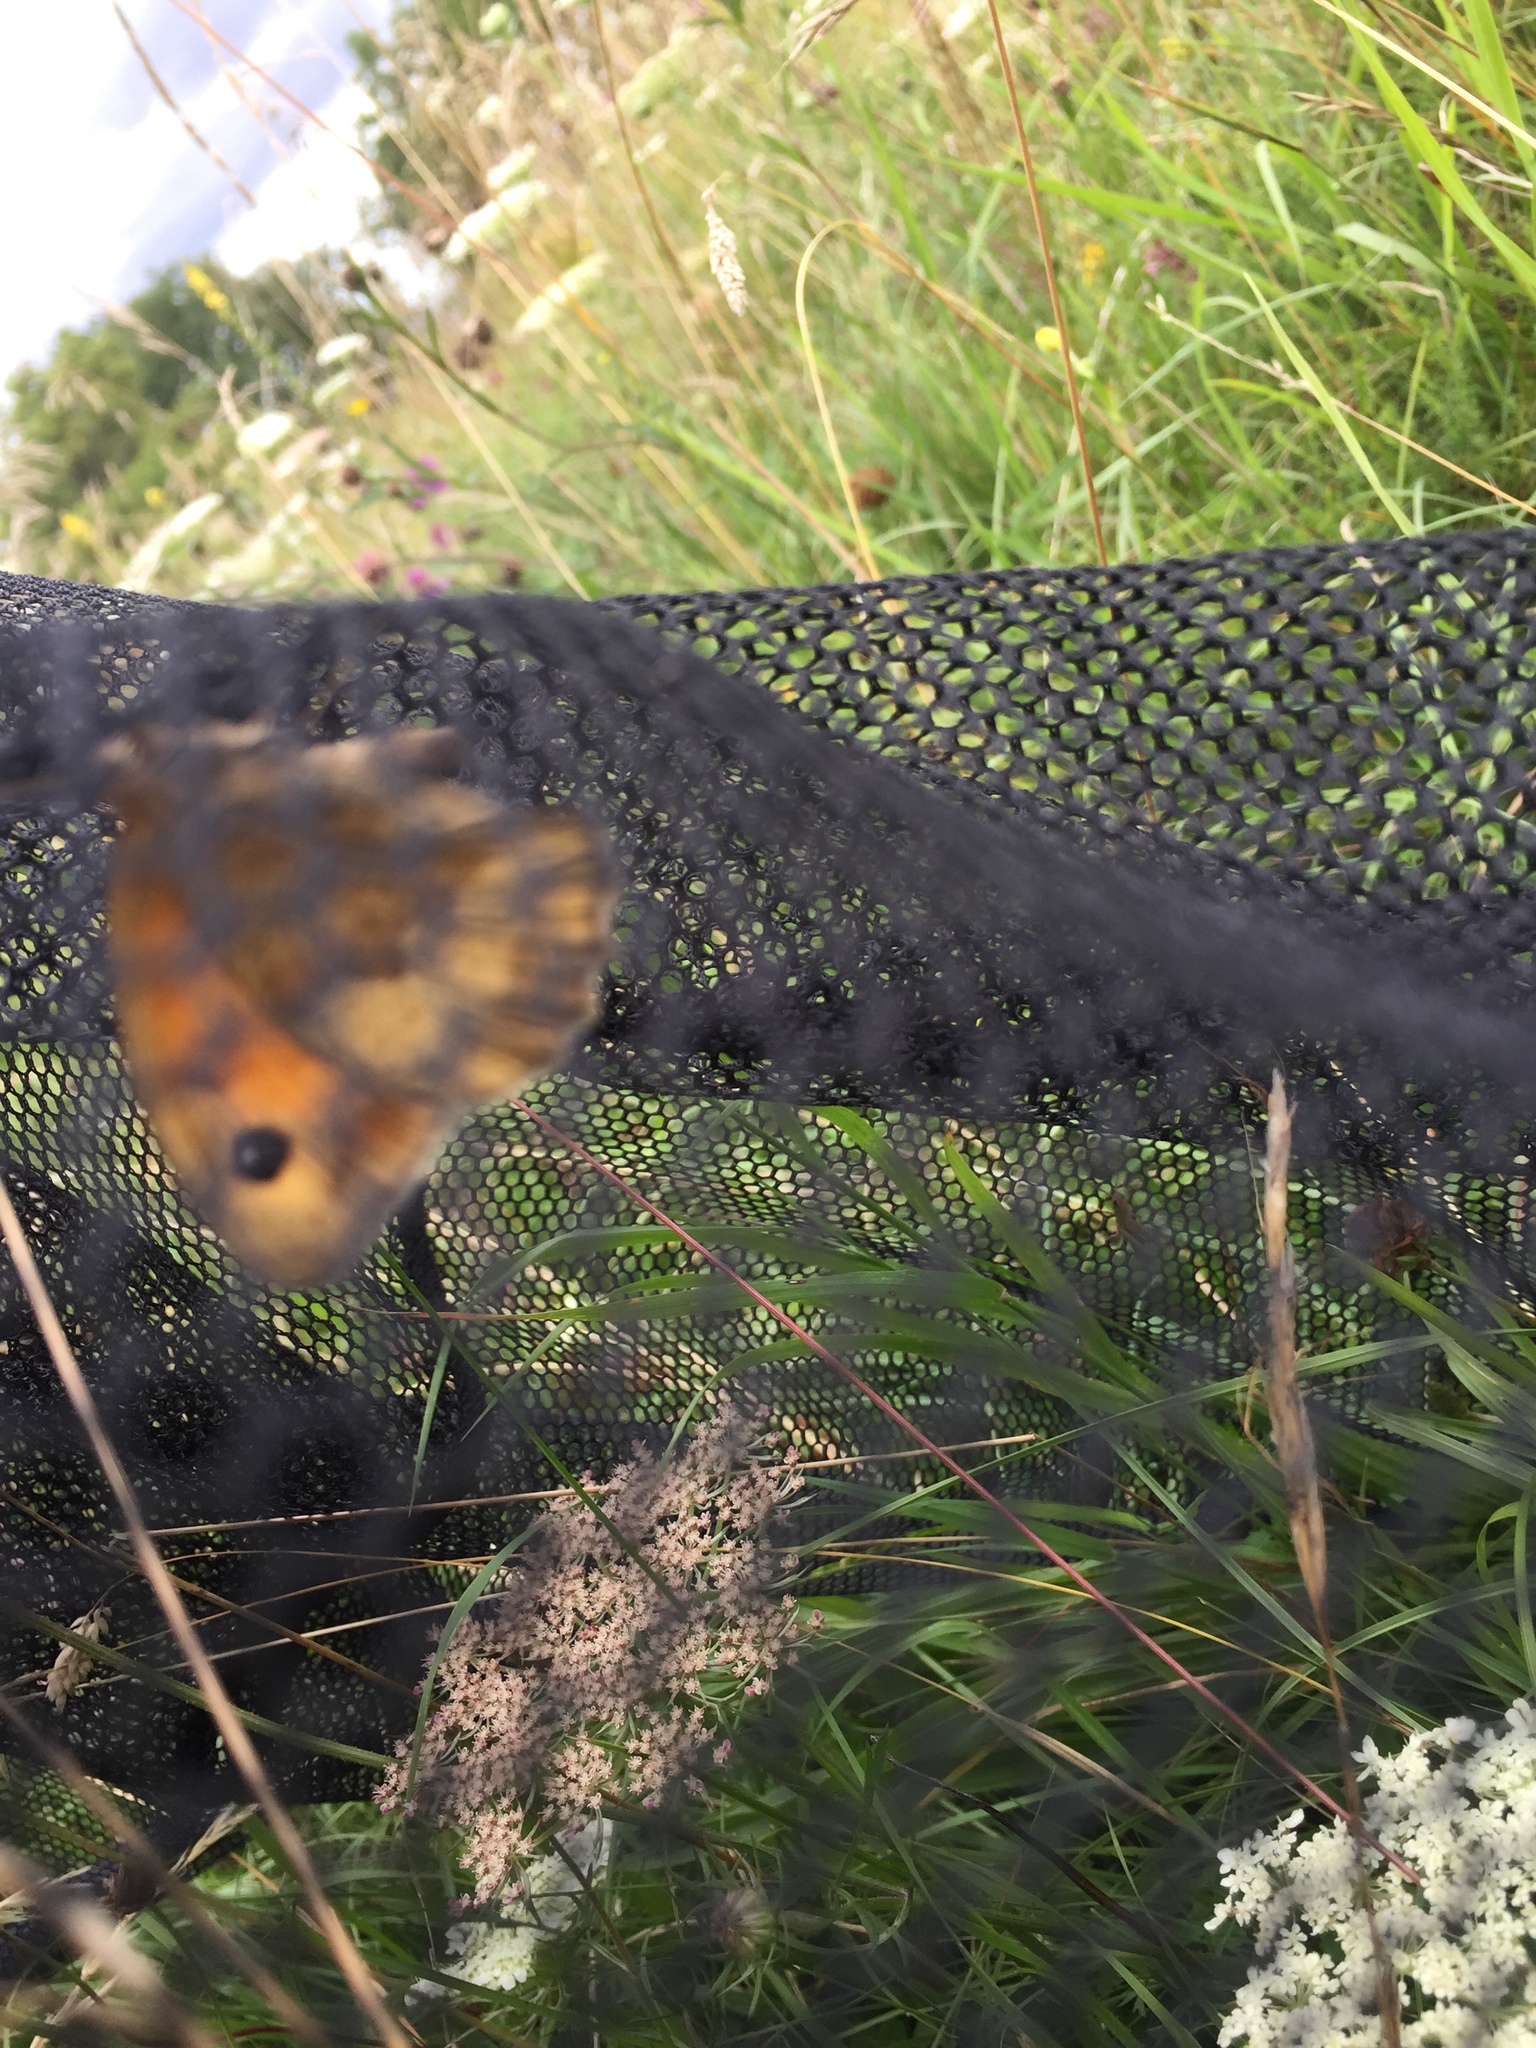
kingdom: Animalia
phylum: Arthropoda
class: Insecta
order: Lepidoptera
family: Nymphalidae
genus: Maniola
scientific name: Maniola jurtina
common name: Meadow brown
